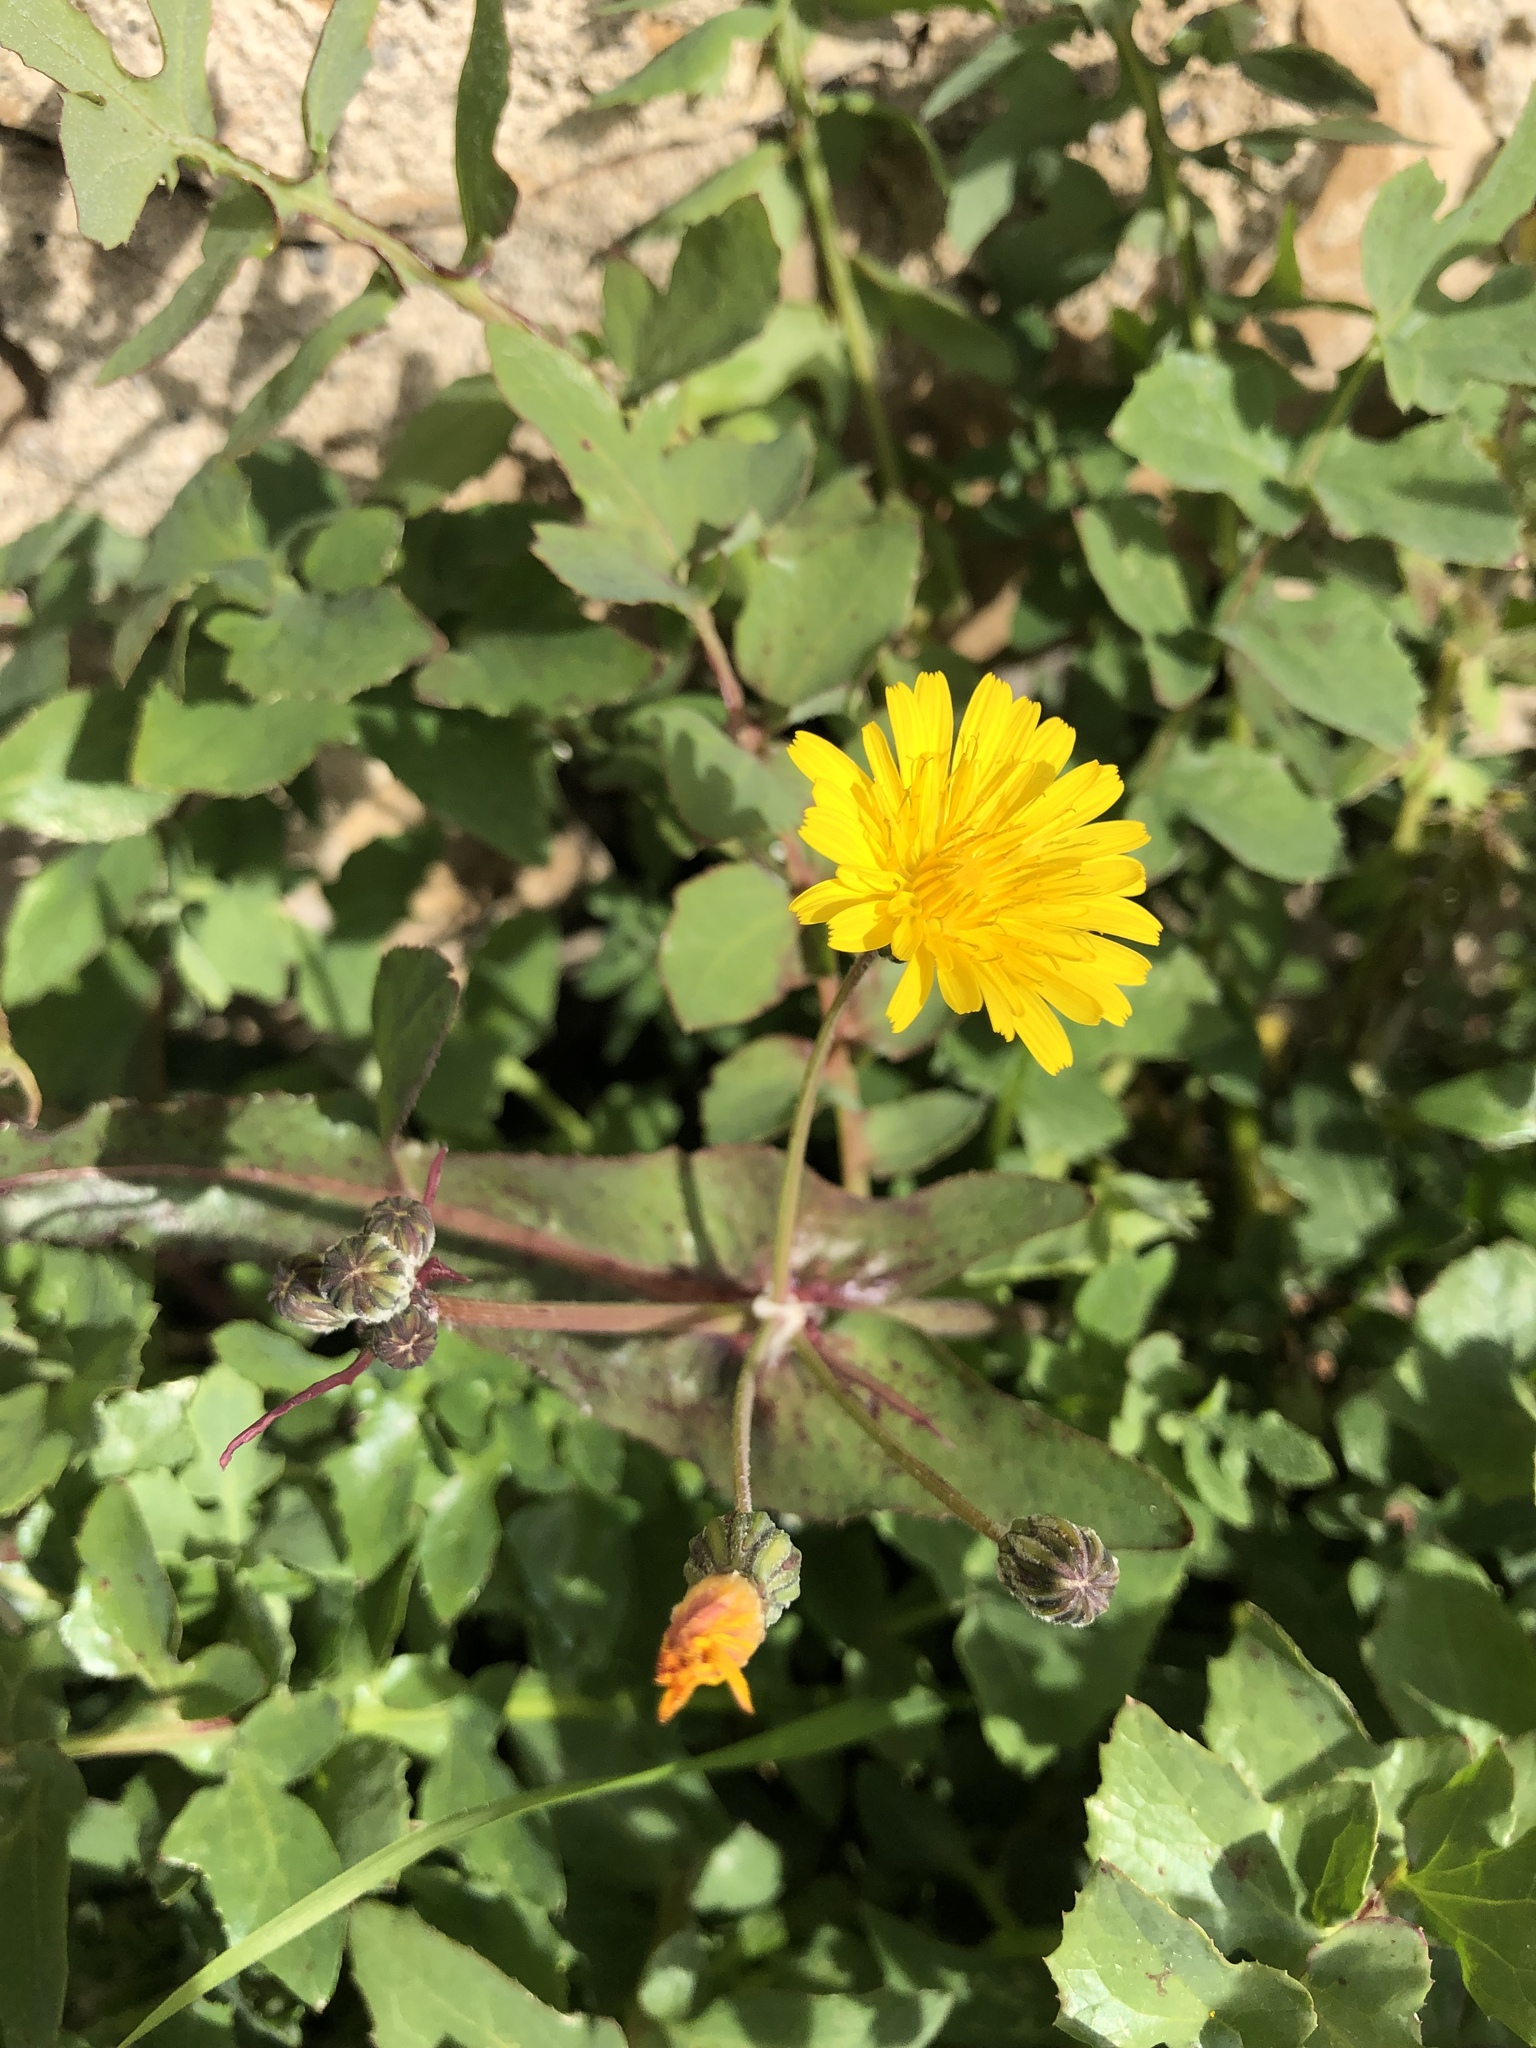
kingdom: Plantae
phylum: Tracheophyta
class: Magnoliopsida
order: Asterales
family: Asteraceae
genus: Sonchus
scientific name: Sonchus oleraceus
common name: Common sowthistle
